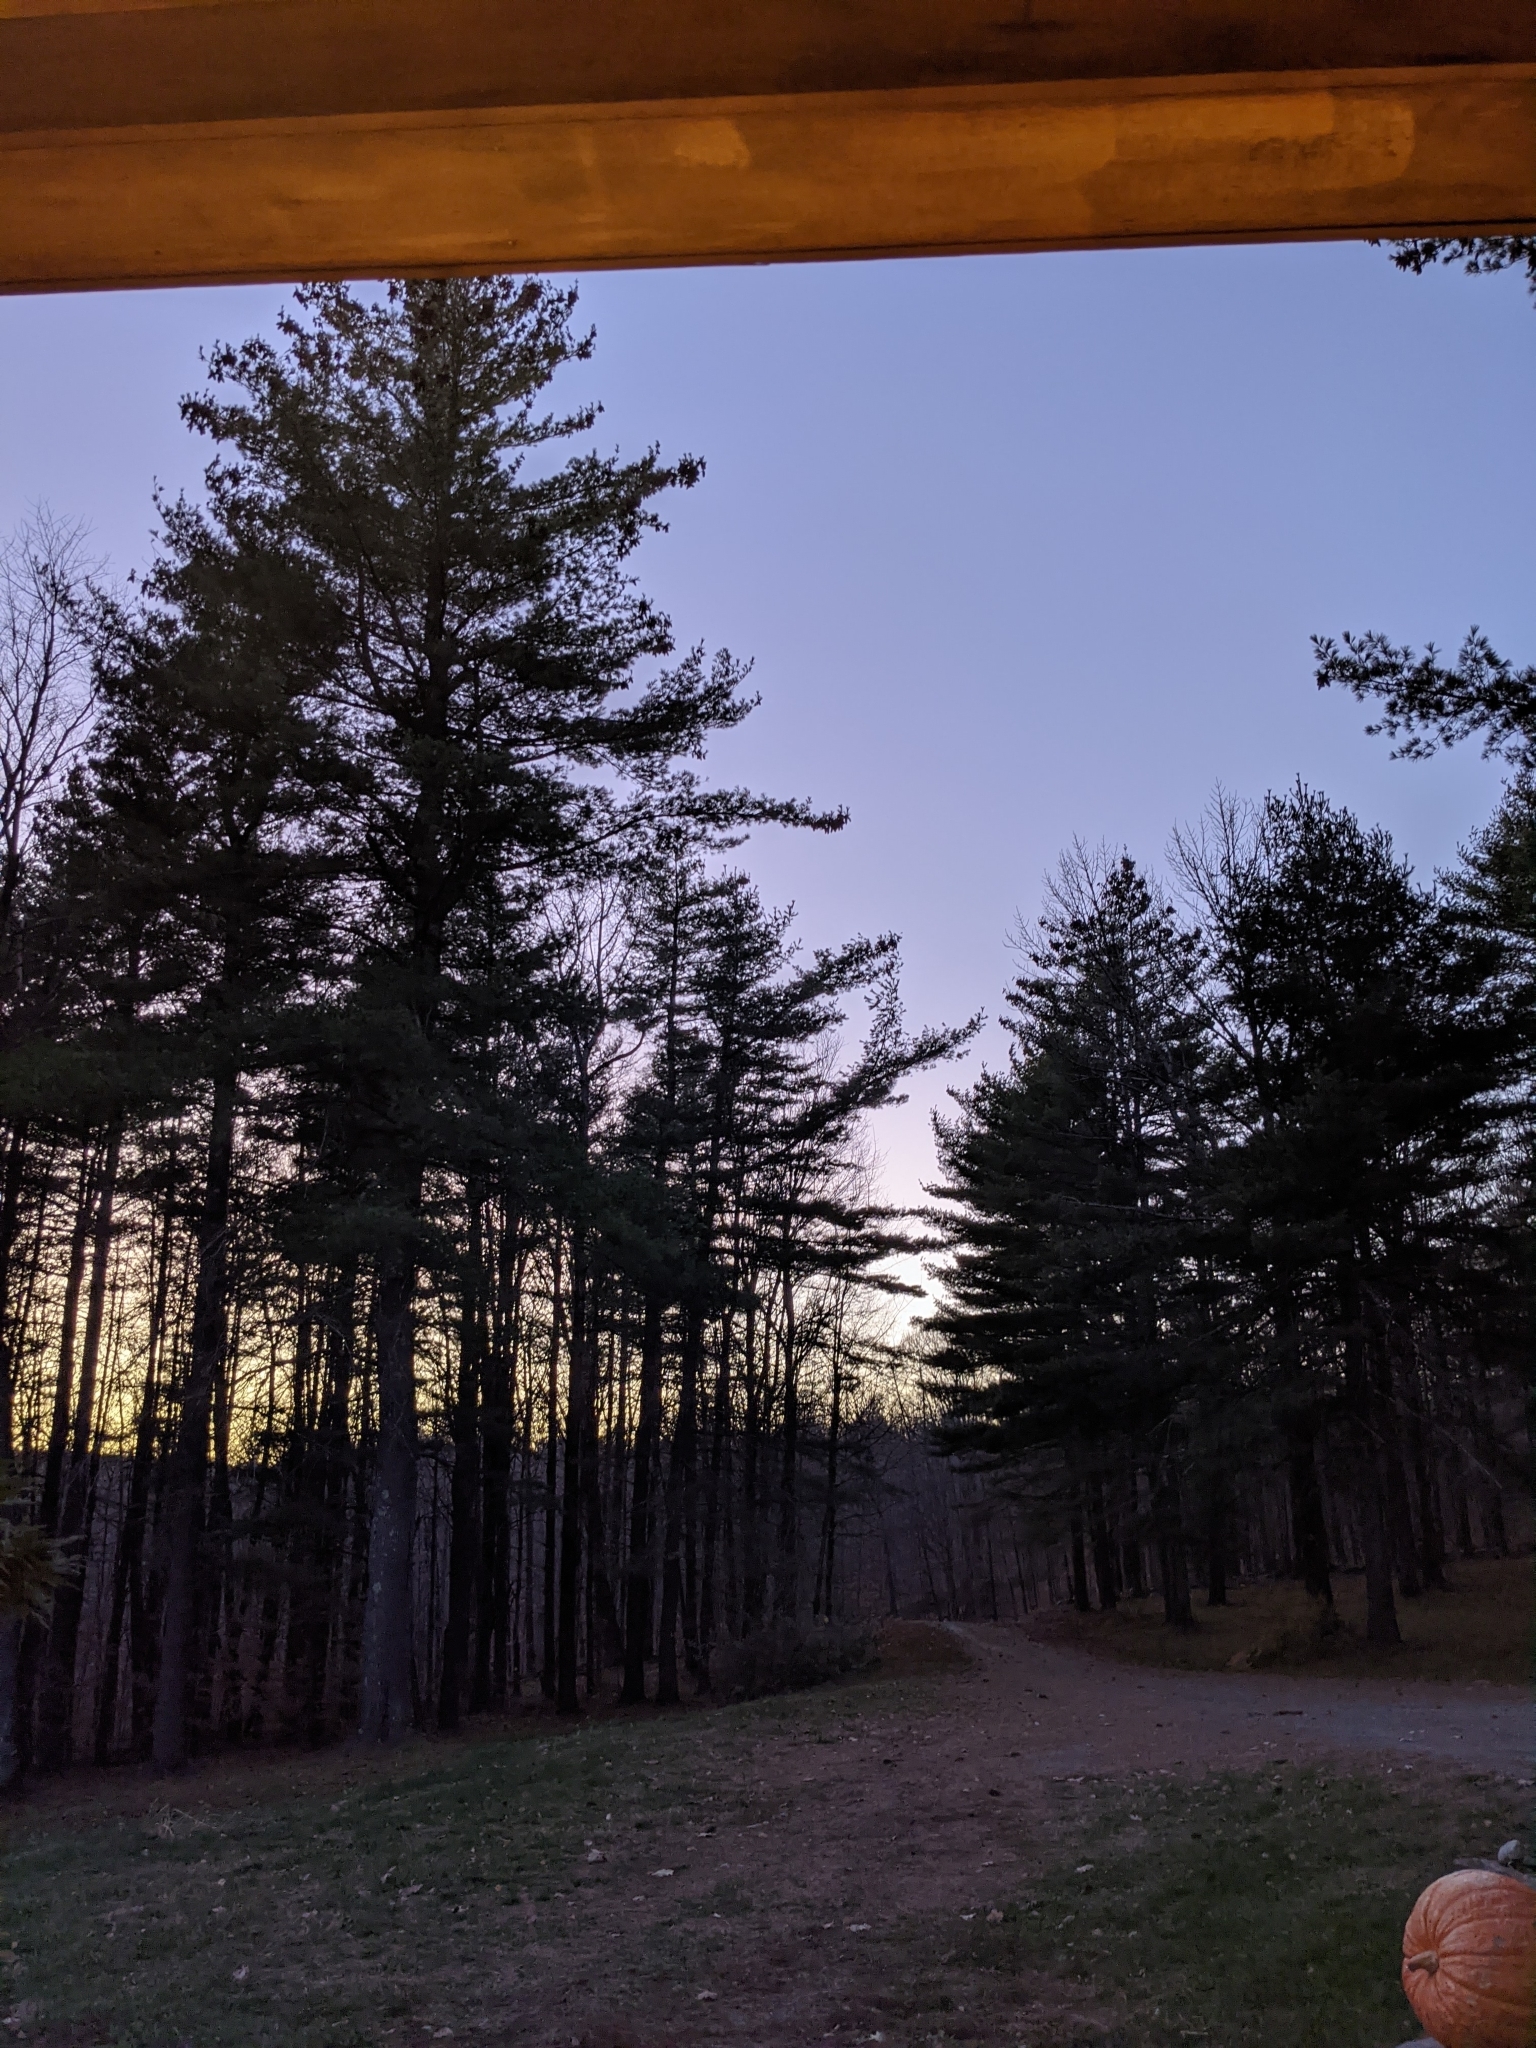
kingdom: Plantae
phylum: Tracheophyta
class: Pinopsida
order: Pinales
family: Pinaceae
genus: Pinus
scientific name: Pinus strobus
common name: Weymouth pine
